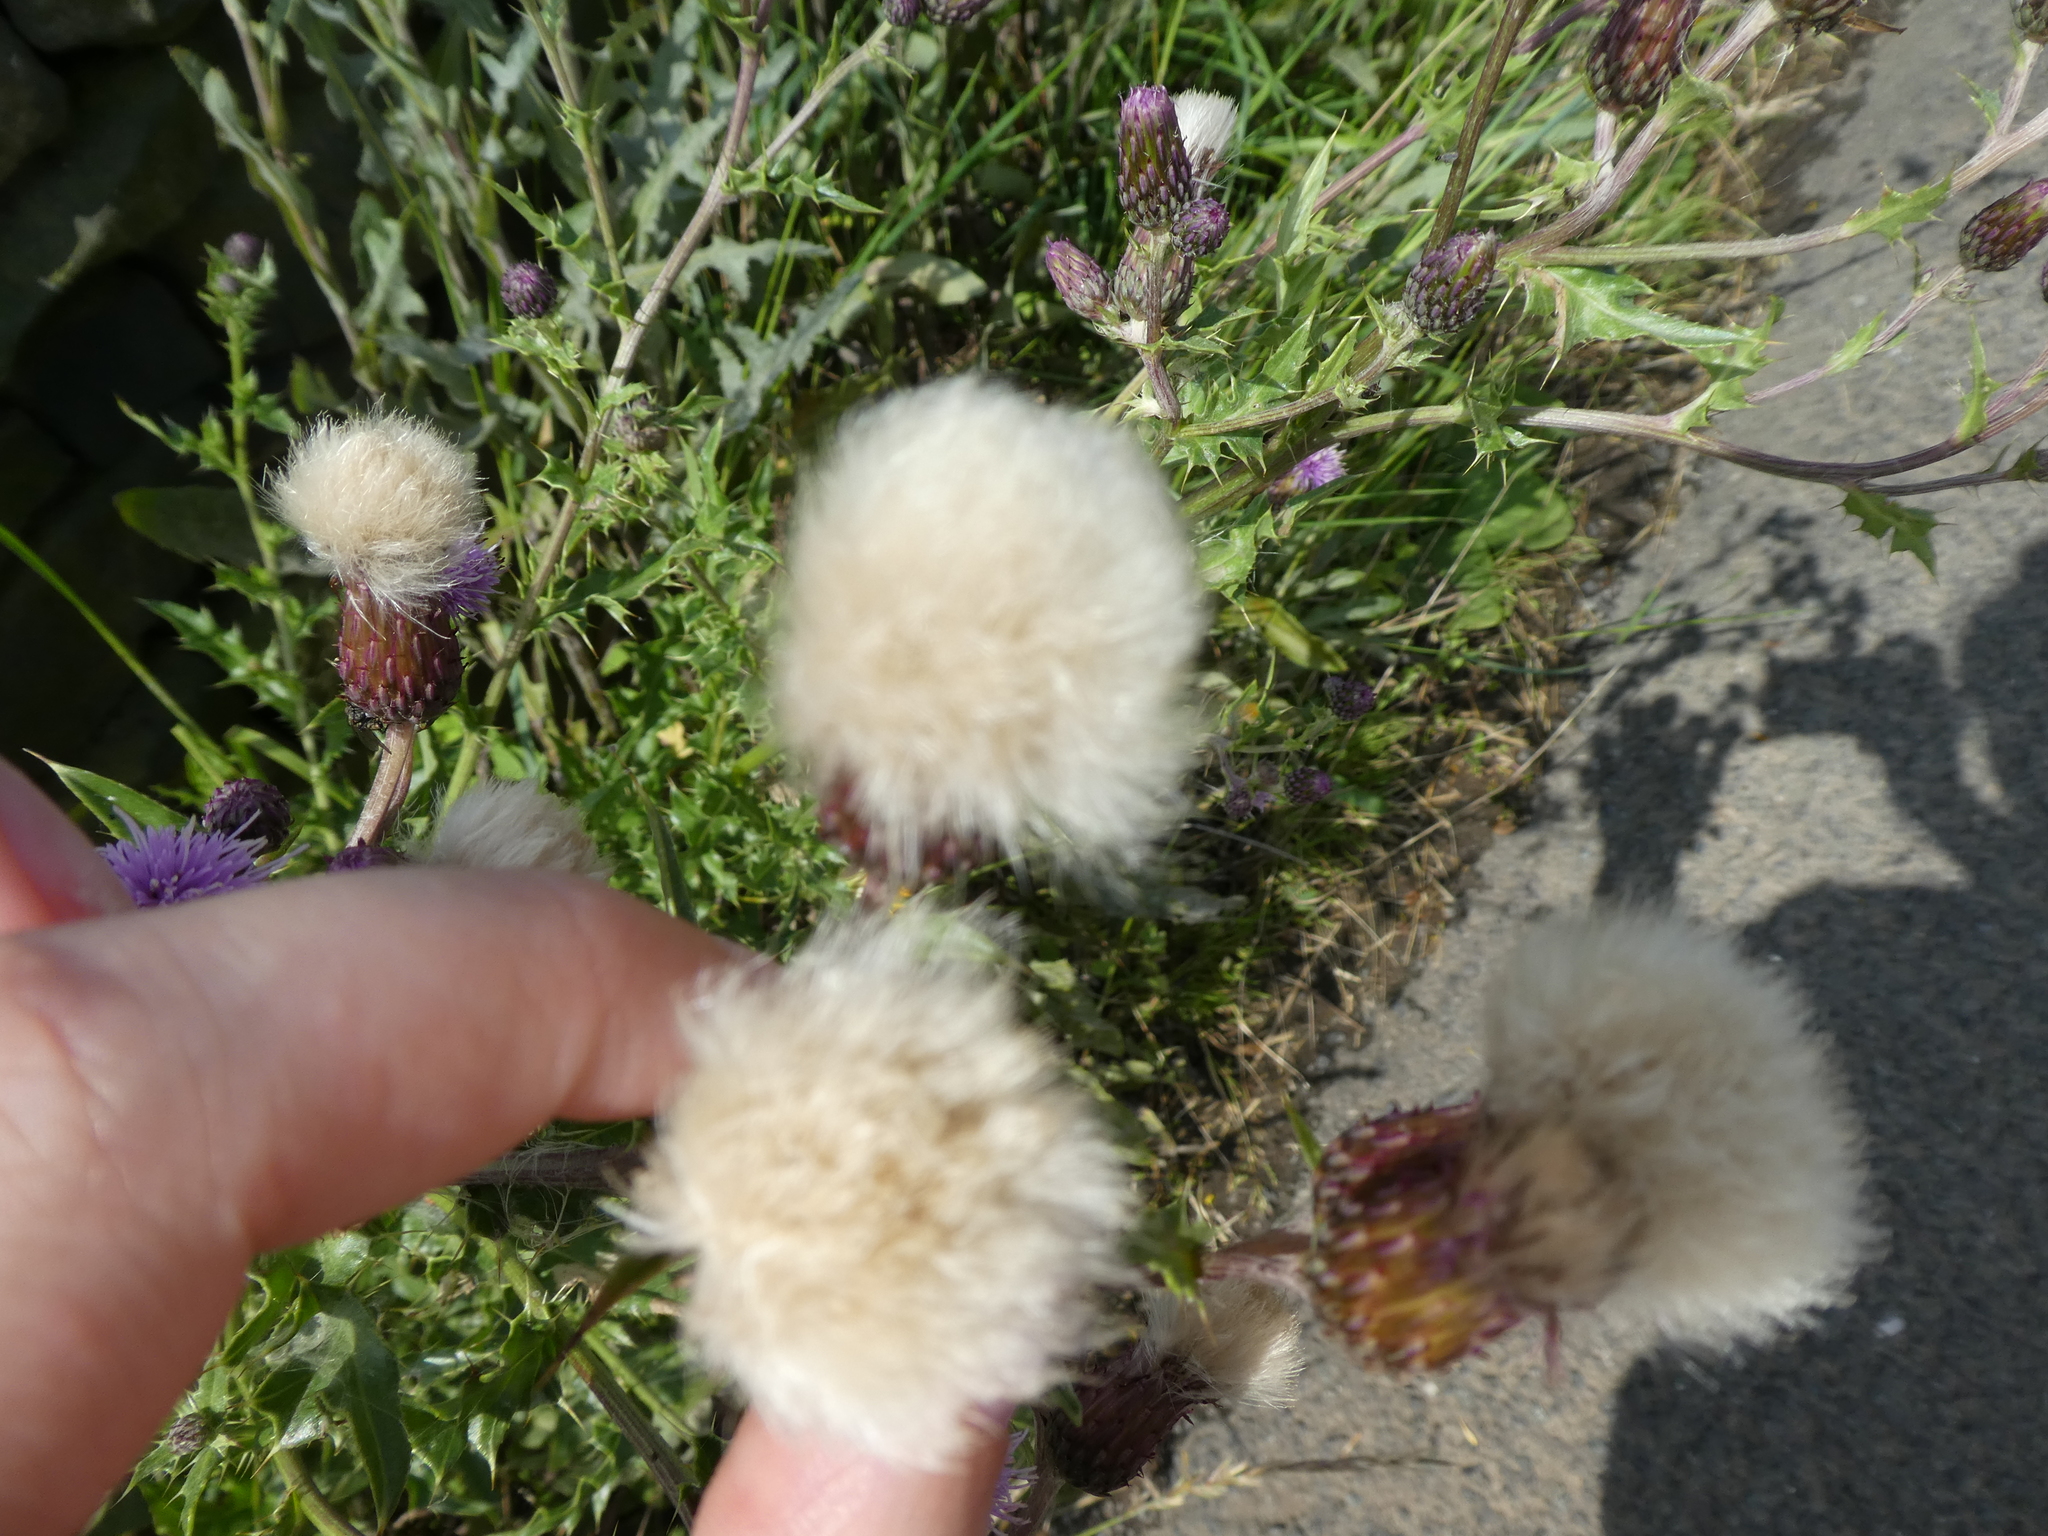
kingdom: Plantae
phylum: Tracheophyta
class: Magnoliopsida
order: Asterales
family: Asteraceae
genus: Cirsium
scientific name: Cirsium arvense
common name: Creeping thistle
